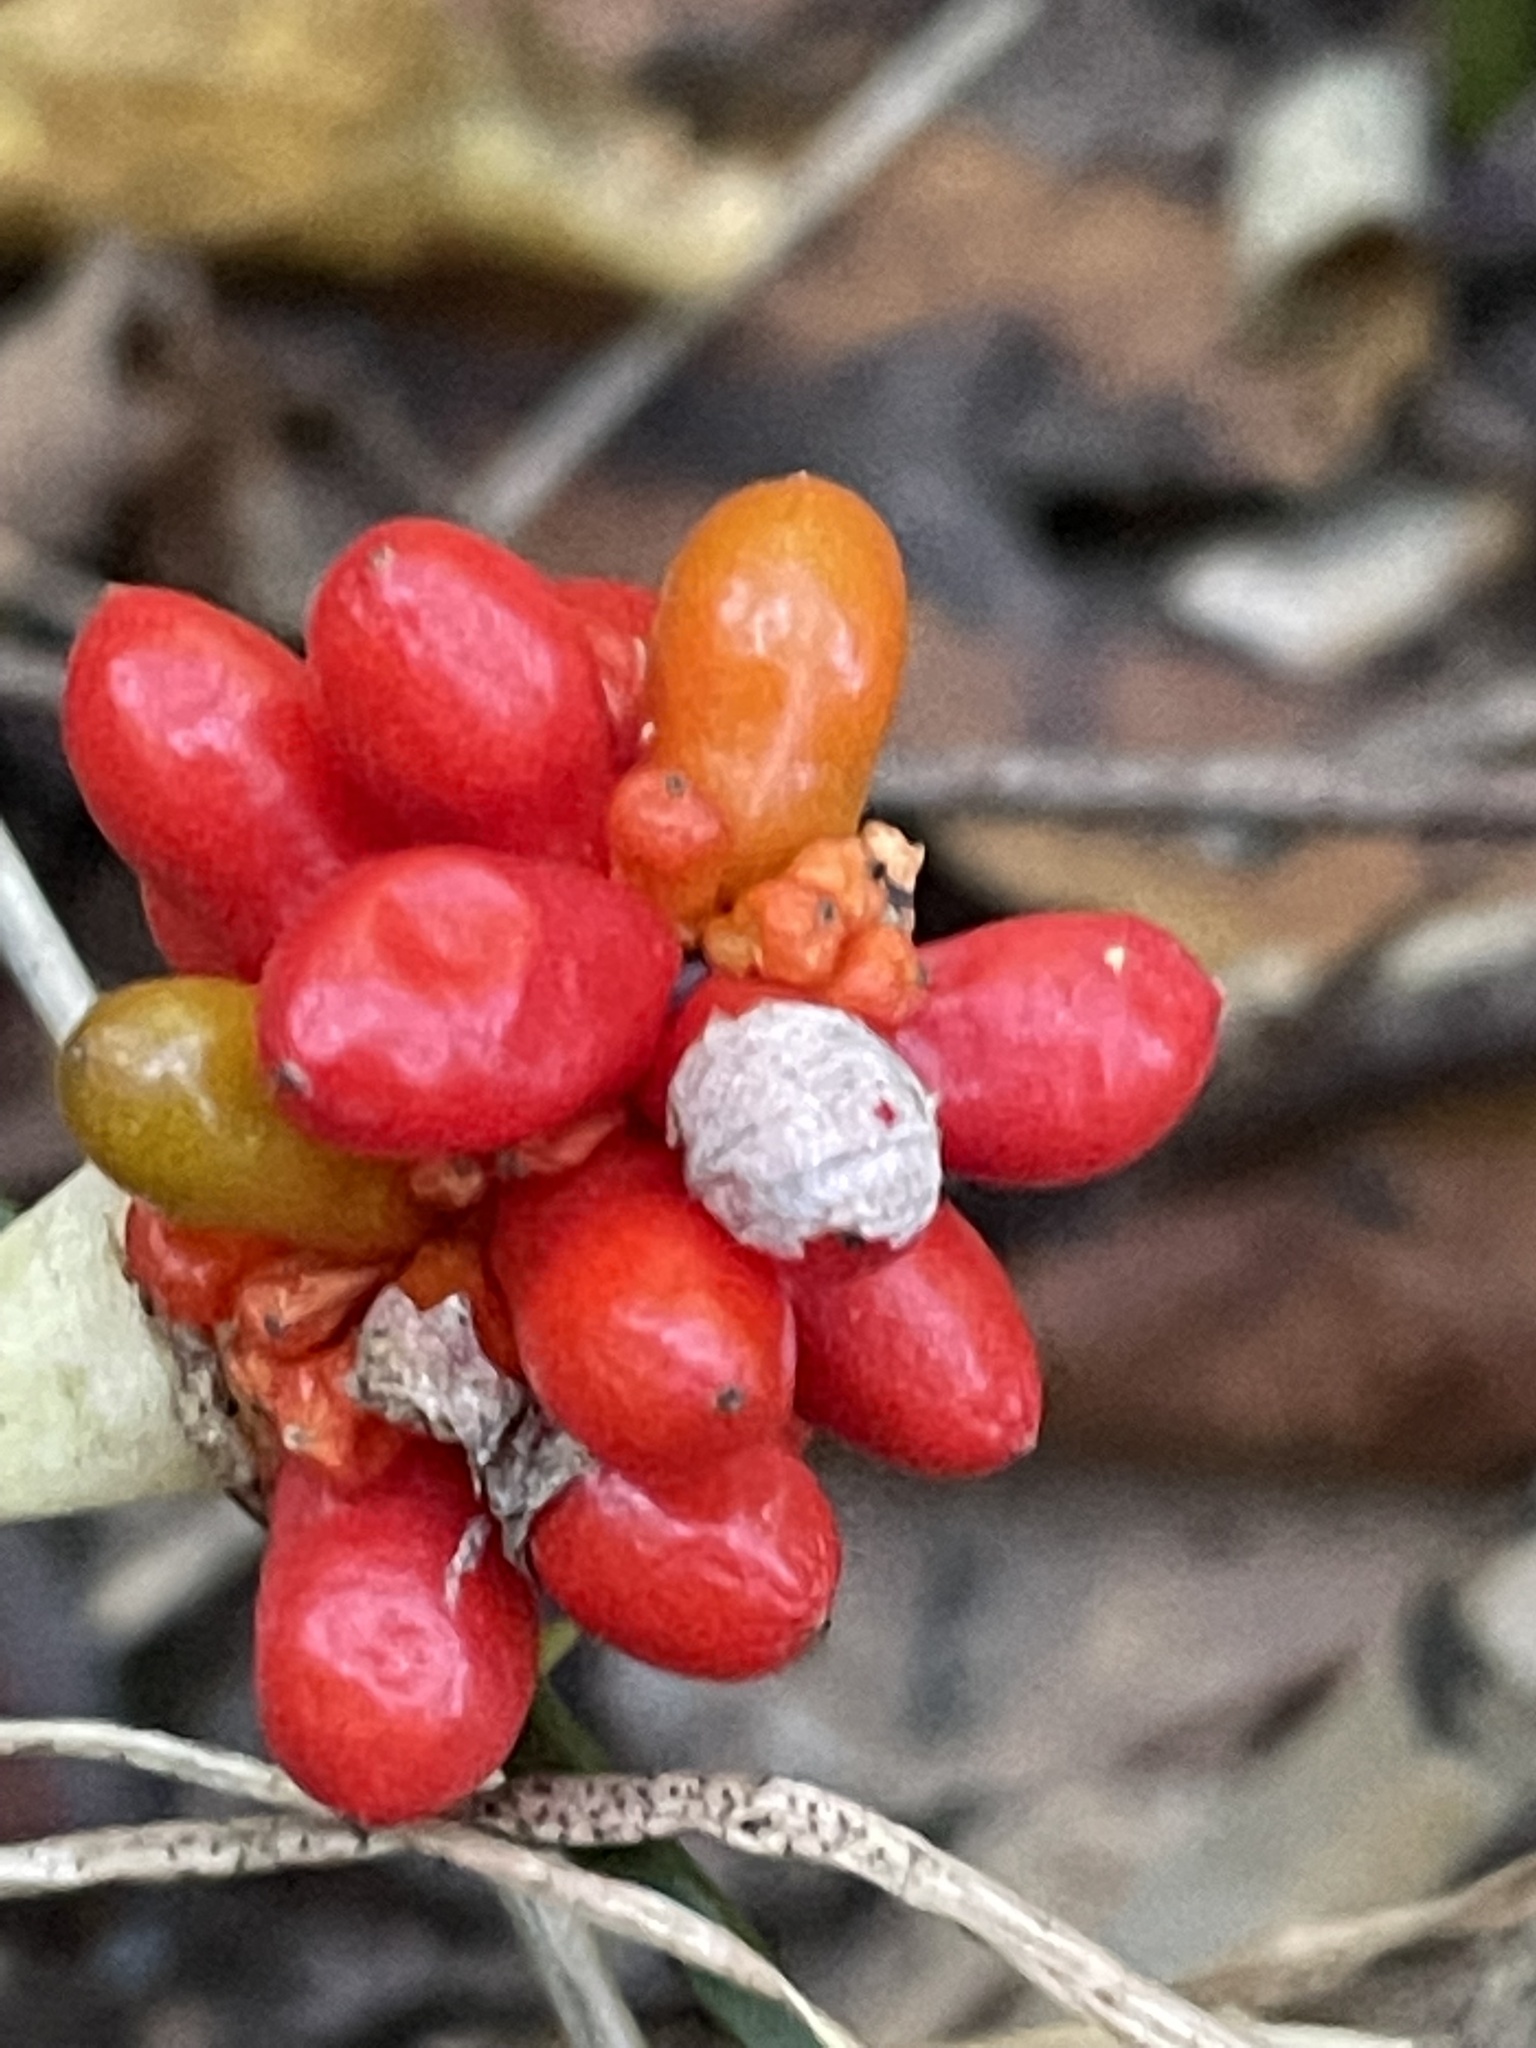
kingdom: Plantae
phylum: Tracheophyta
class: Liliopsida
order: Alismatales
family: Araceae
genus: Arisaema
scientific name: Arisaema triphyllum
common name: Jack-in-the-pulpit
